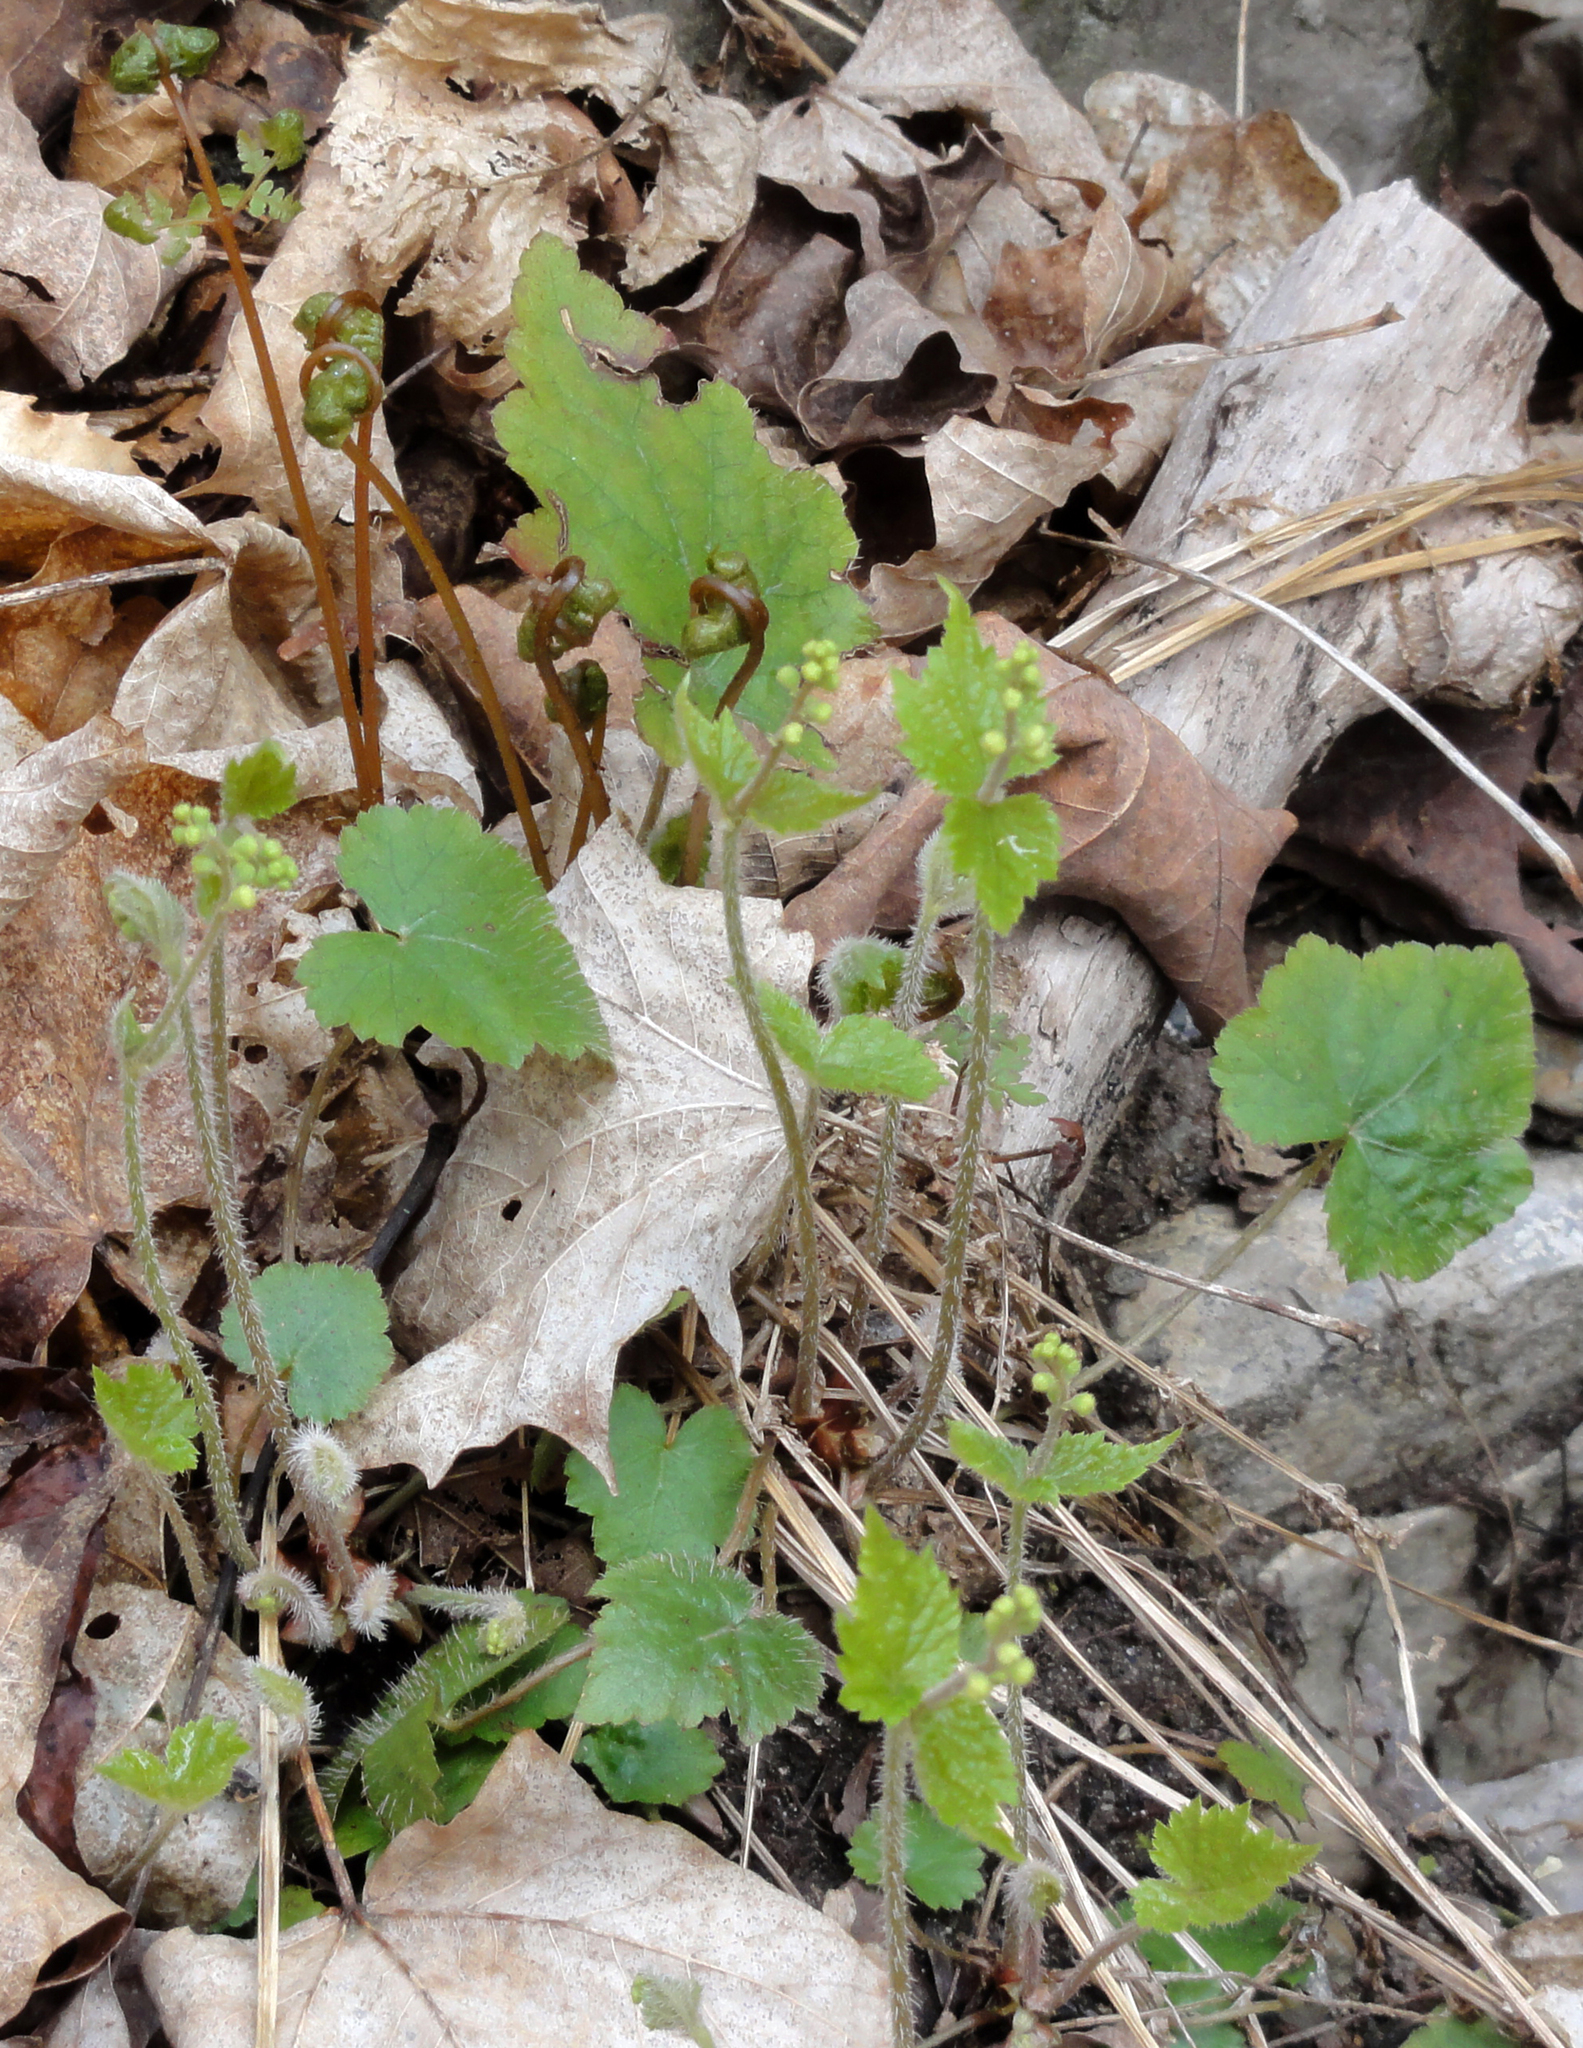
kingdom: Plantae
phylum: Tracheophyta
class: Magnoliopsida
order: Saxifragales
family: Saxifragaceae
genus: Mitella
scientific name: Mitella diphylla
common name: Coolwort
